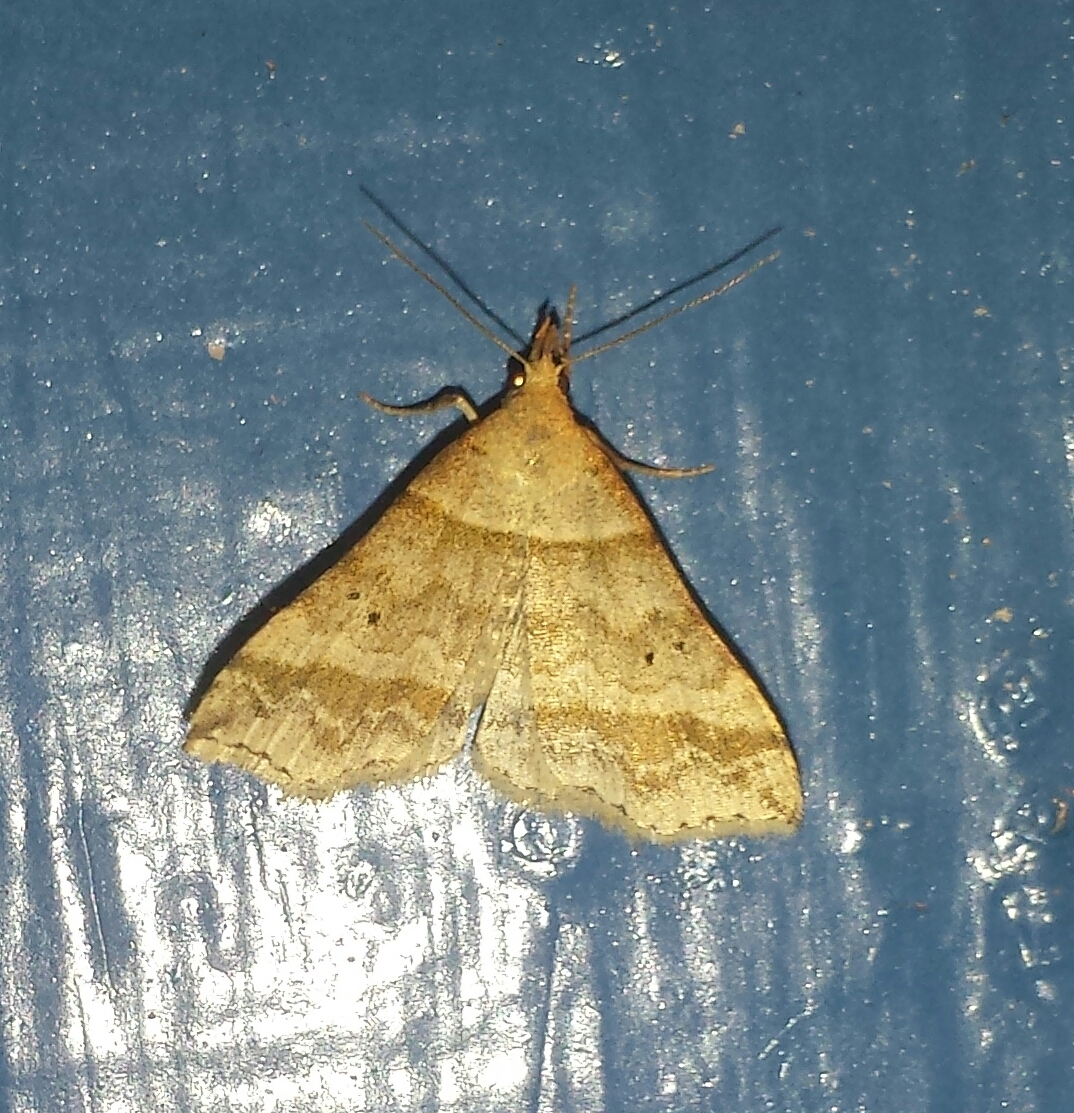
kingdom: Animalia
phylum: Arthropoda
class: Insecta
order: Lepidoptera
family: Erebidae
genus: Phaeolita
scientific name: Phaeolita pyramusalis
